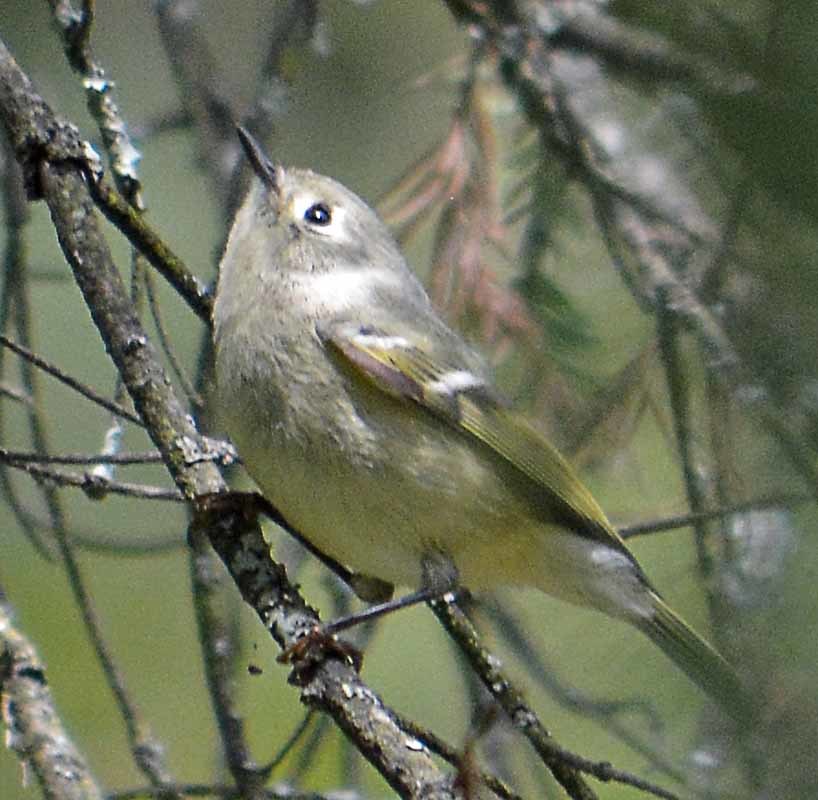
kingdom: Animalia
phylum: Chordata
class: Aves
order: Passeriformes
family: Regulidae
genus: Regulus
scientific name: Regulus calendula
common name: Ruby-crowned kinglet
